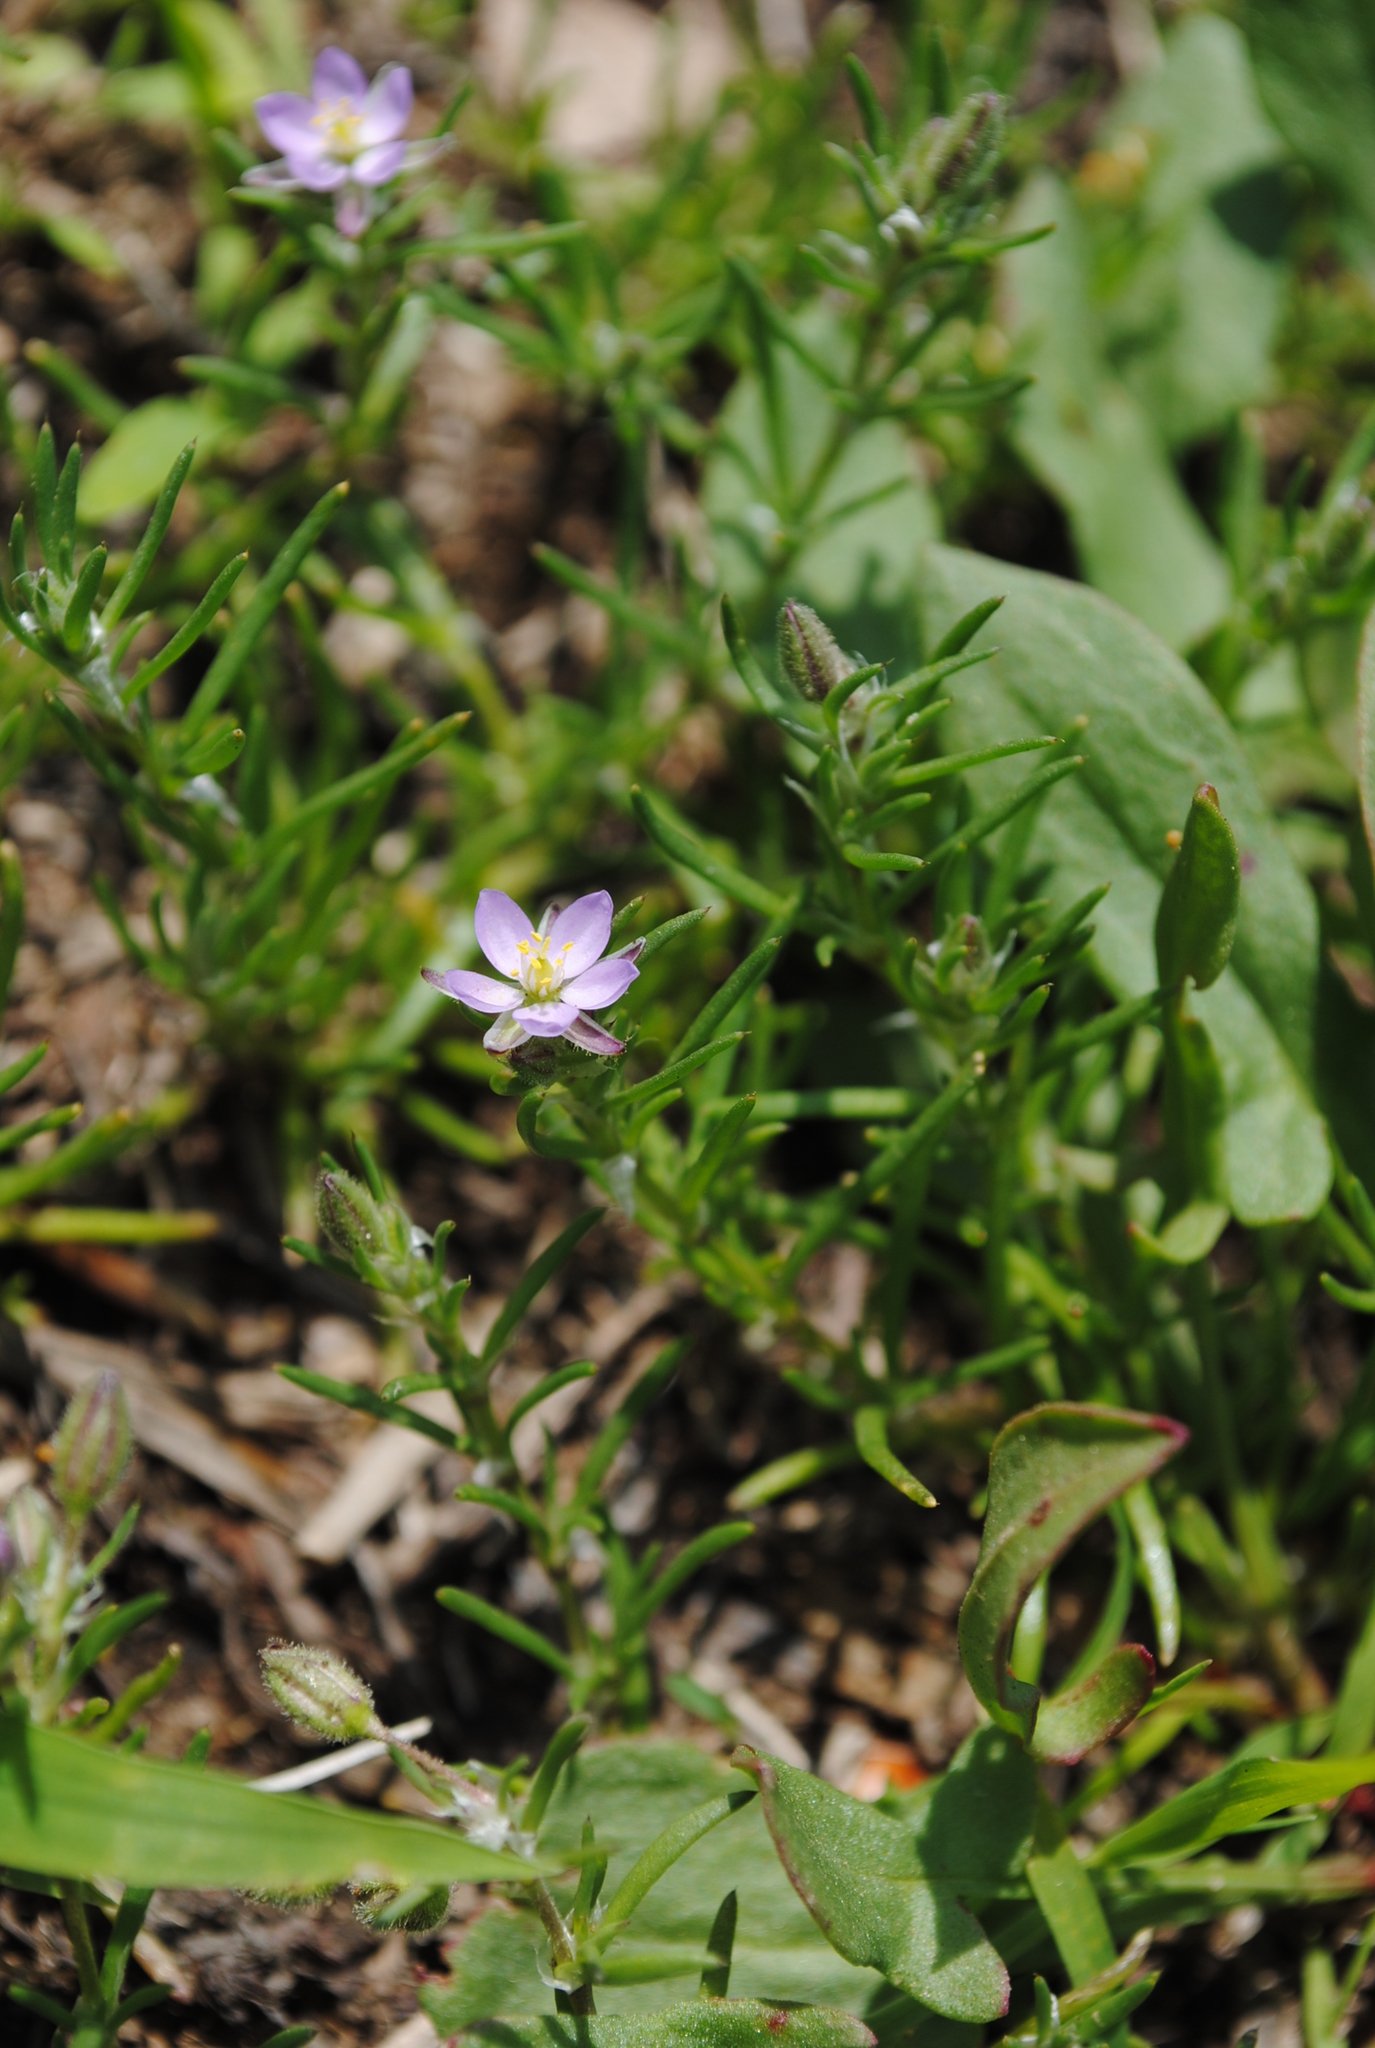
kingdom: Plantae
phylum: Tracheophyta
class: Magnoliopsida
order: Caryophyllales
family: Caryophyllaceae
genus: Spergularia
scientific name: Spergularia rubra
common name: Red sand-spurrey
